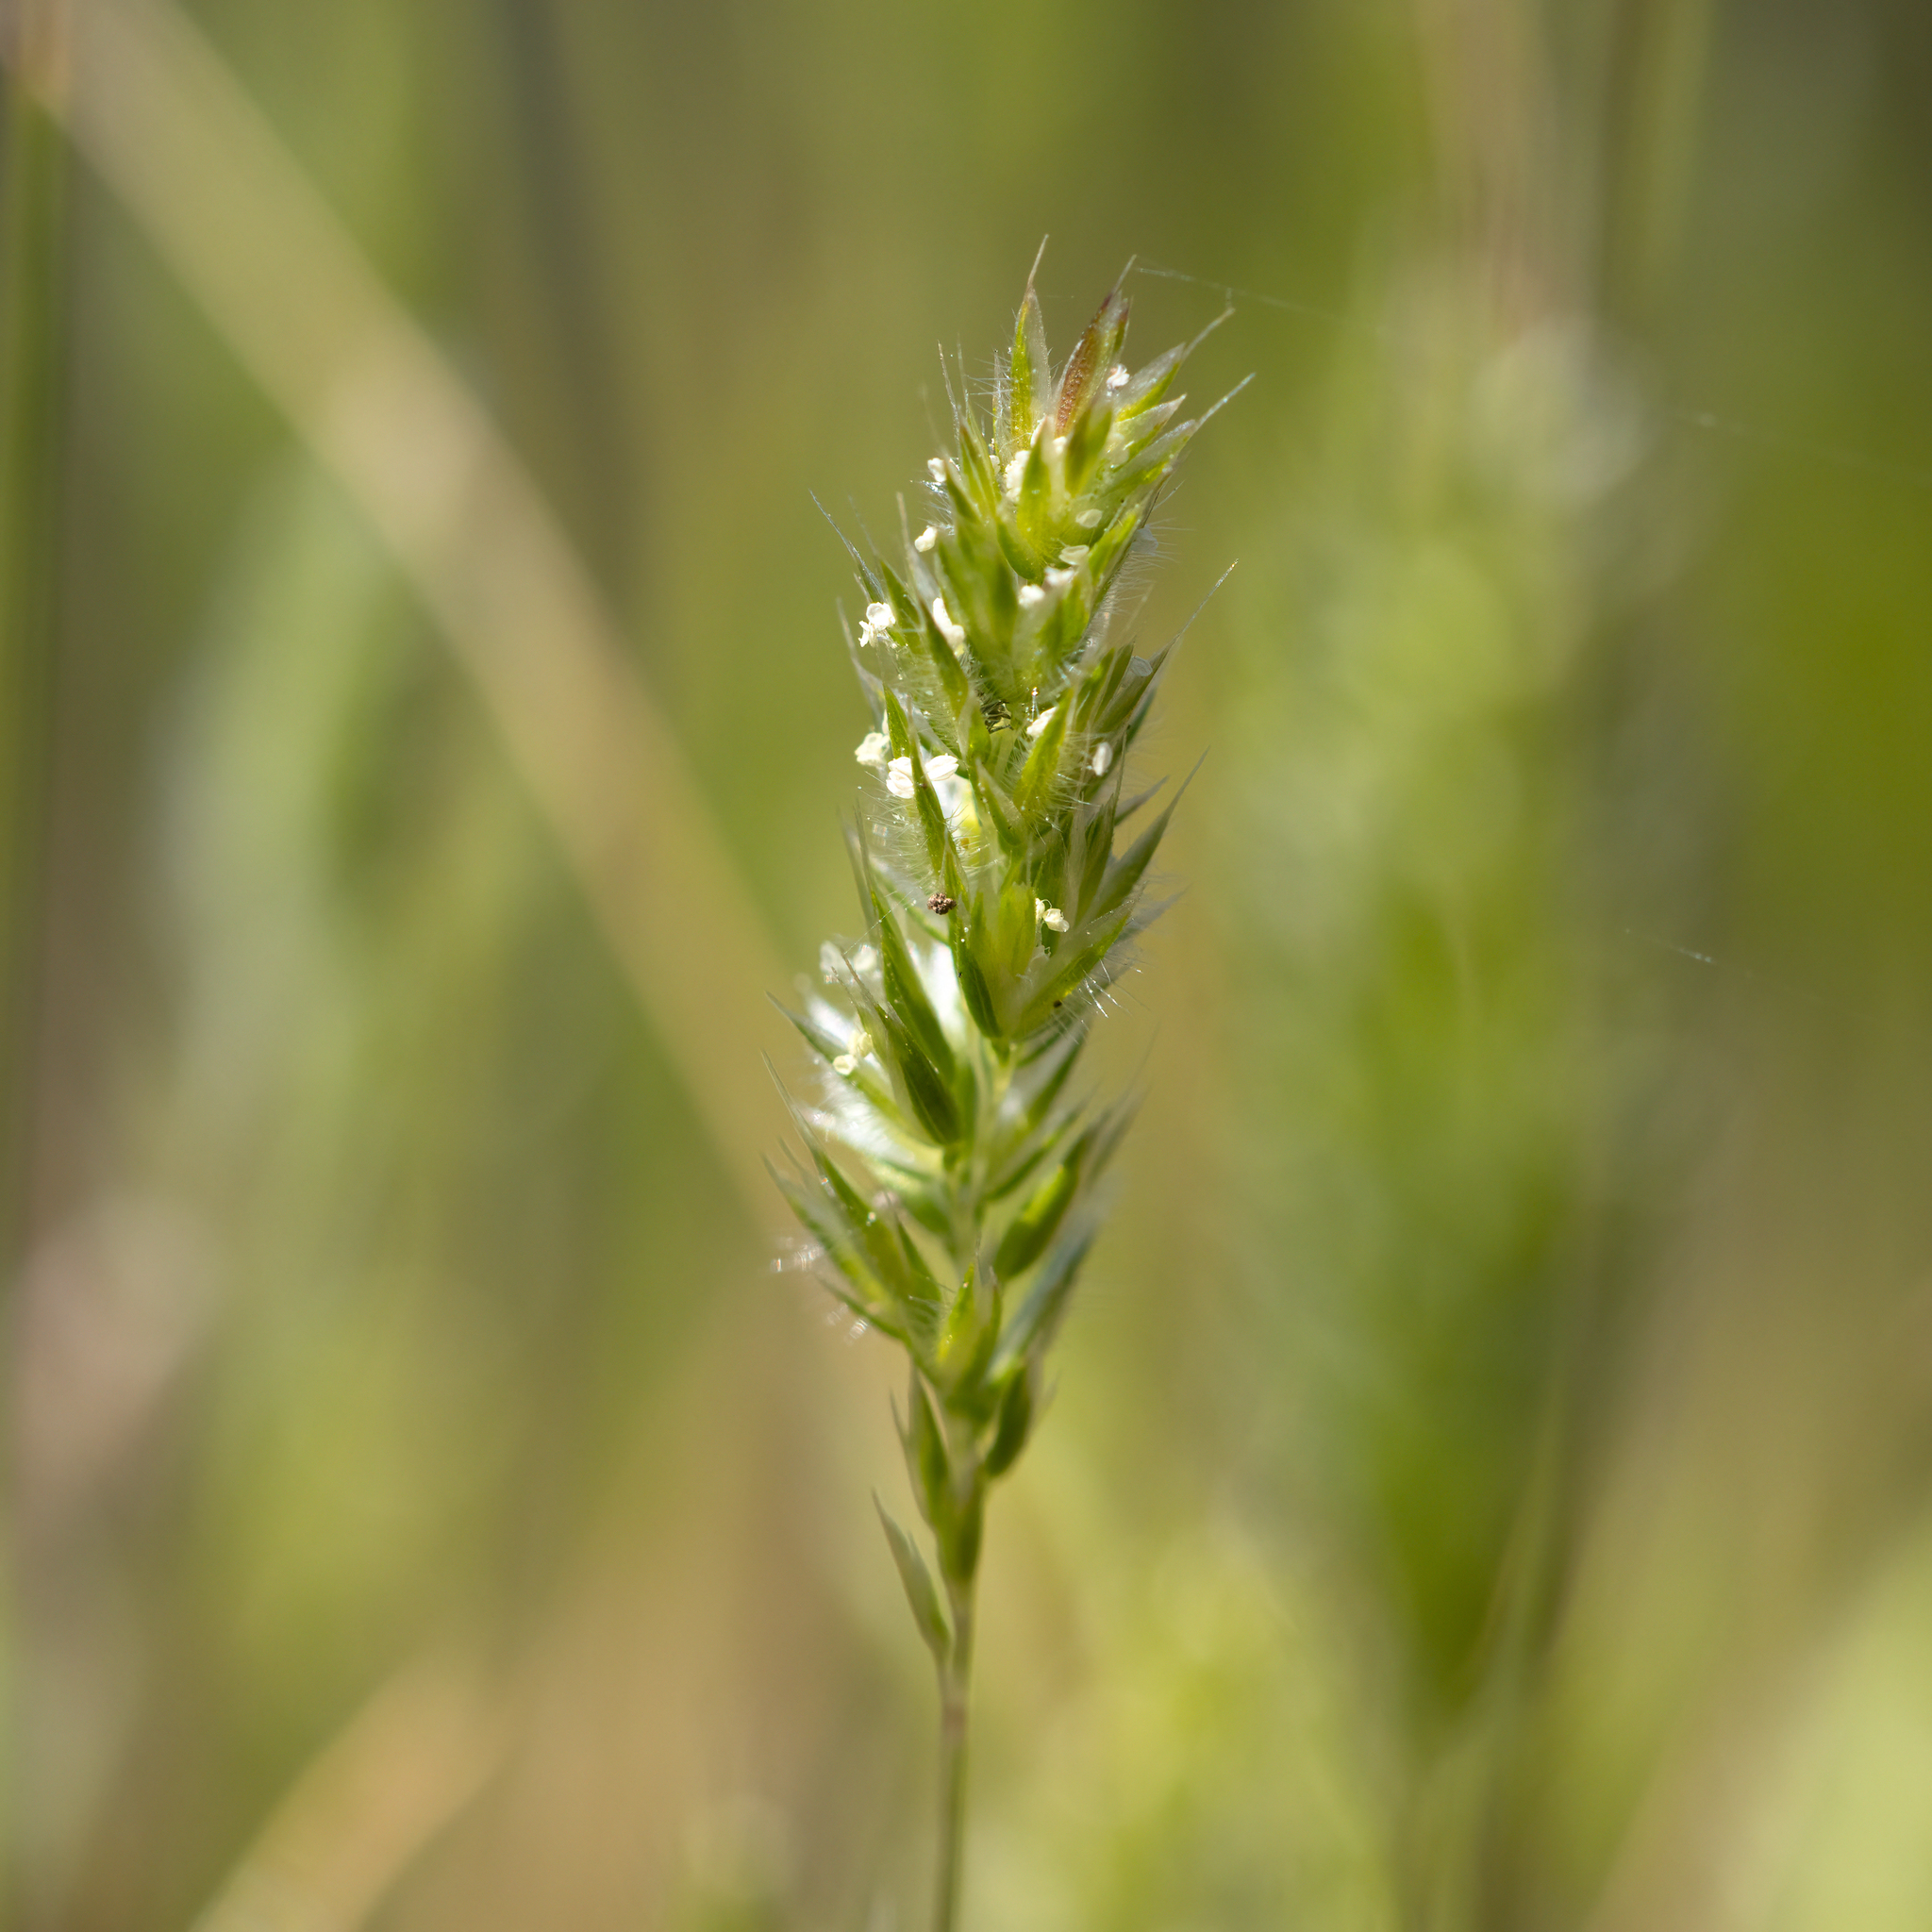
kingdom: Plantae
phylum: Tracheophyta
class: Liliopsida
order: Poales
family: Poaceae
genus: Rostraria
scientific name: Rostraria cristata
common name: Mediterranean hair-grass
